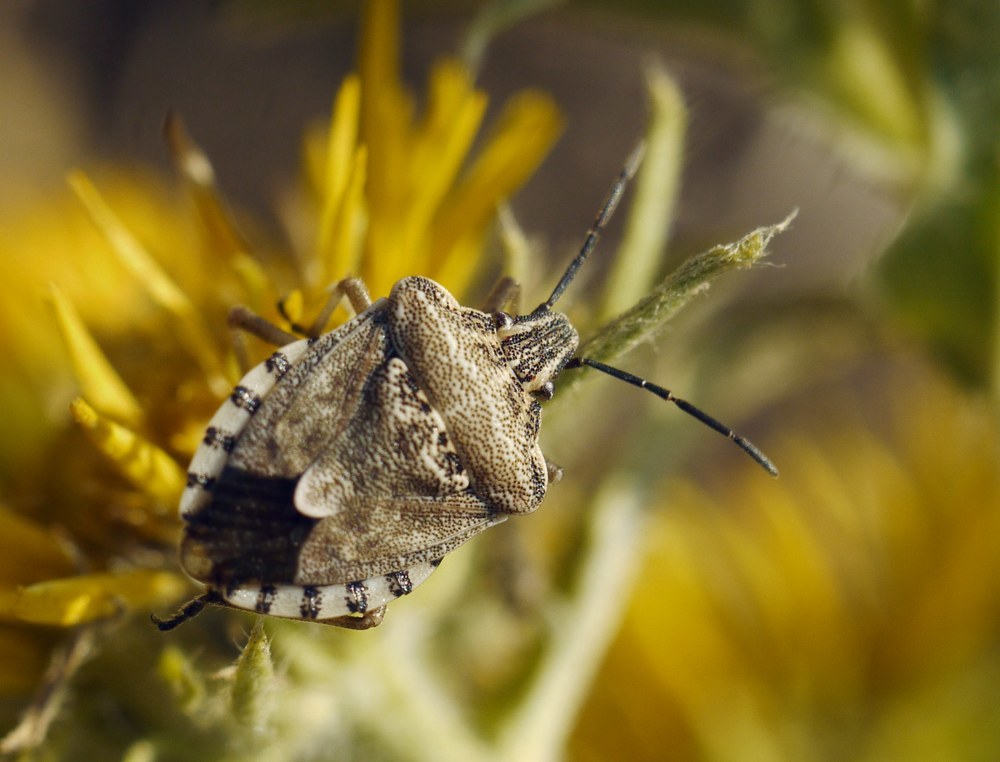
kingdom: Animalia
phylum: Arthropoda
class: Insecta
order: Hemiptera
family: Miridae
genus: Orthops
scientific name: Orthops kalmii
